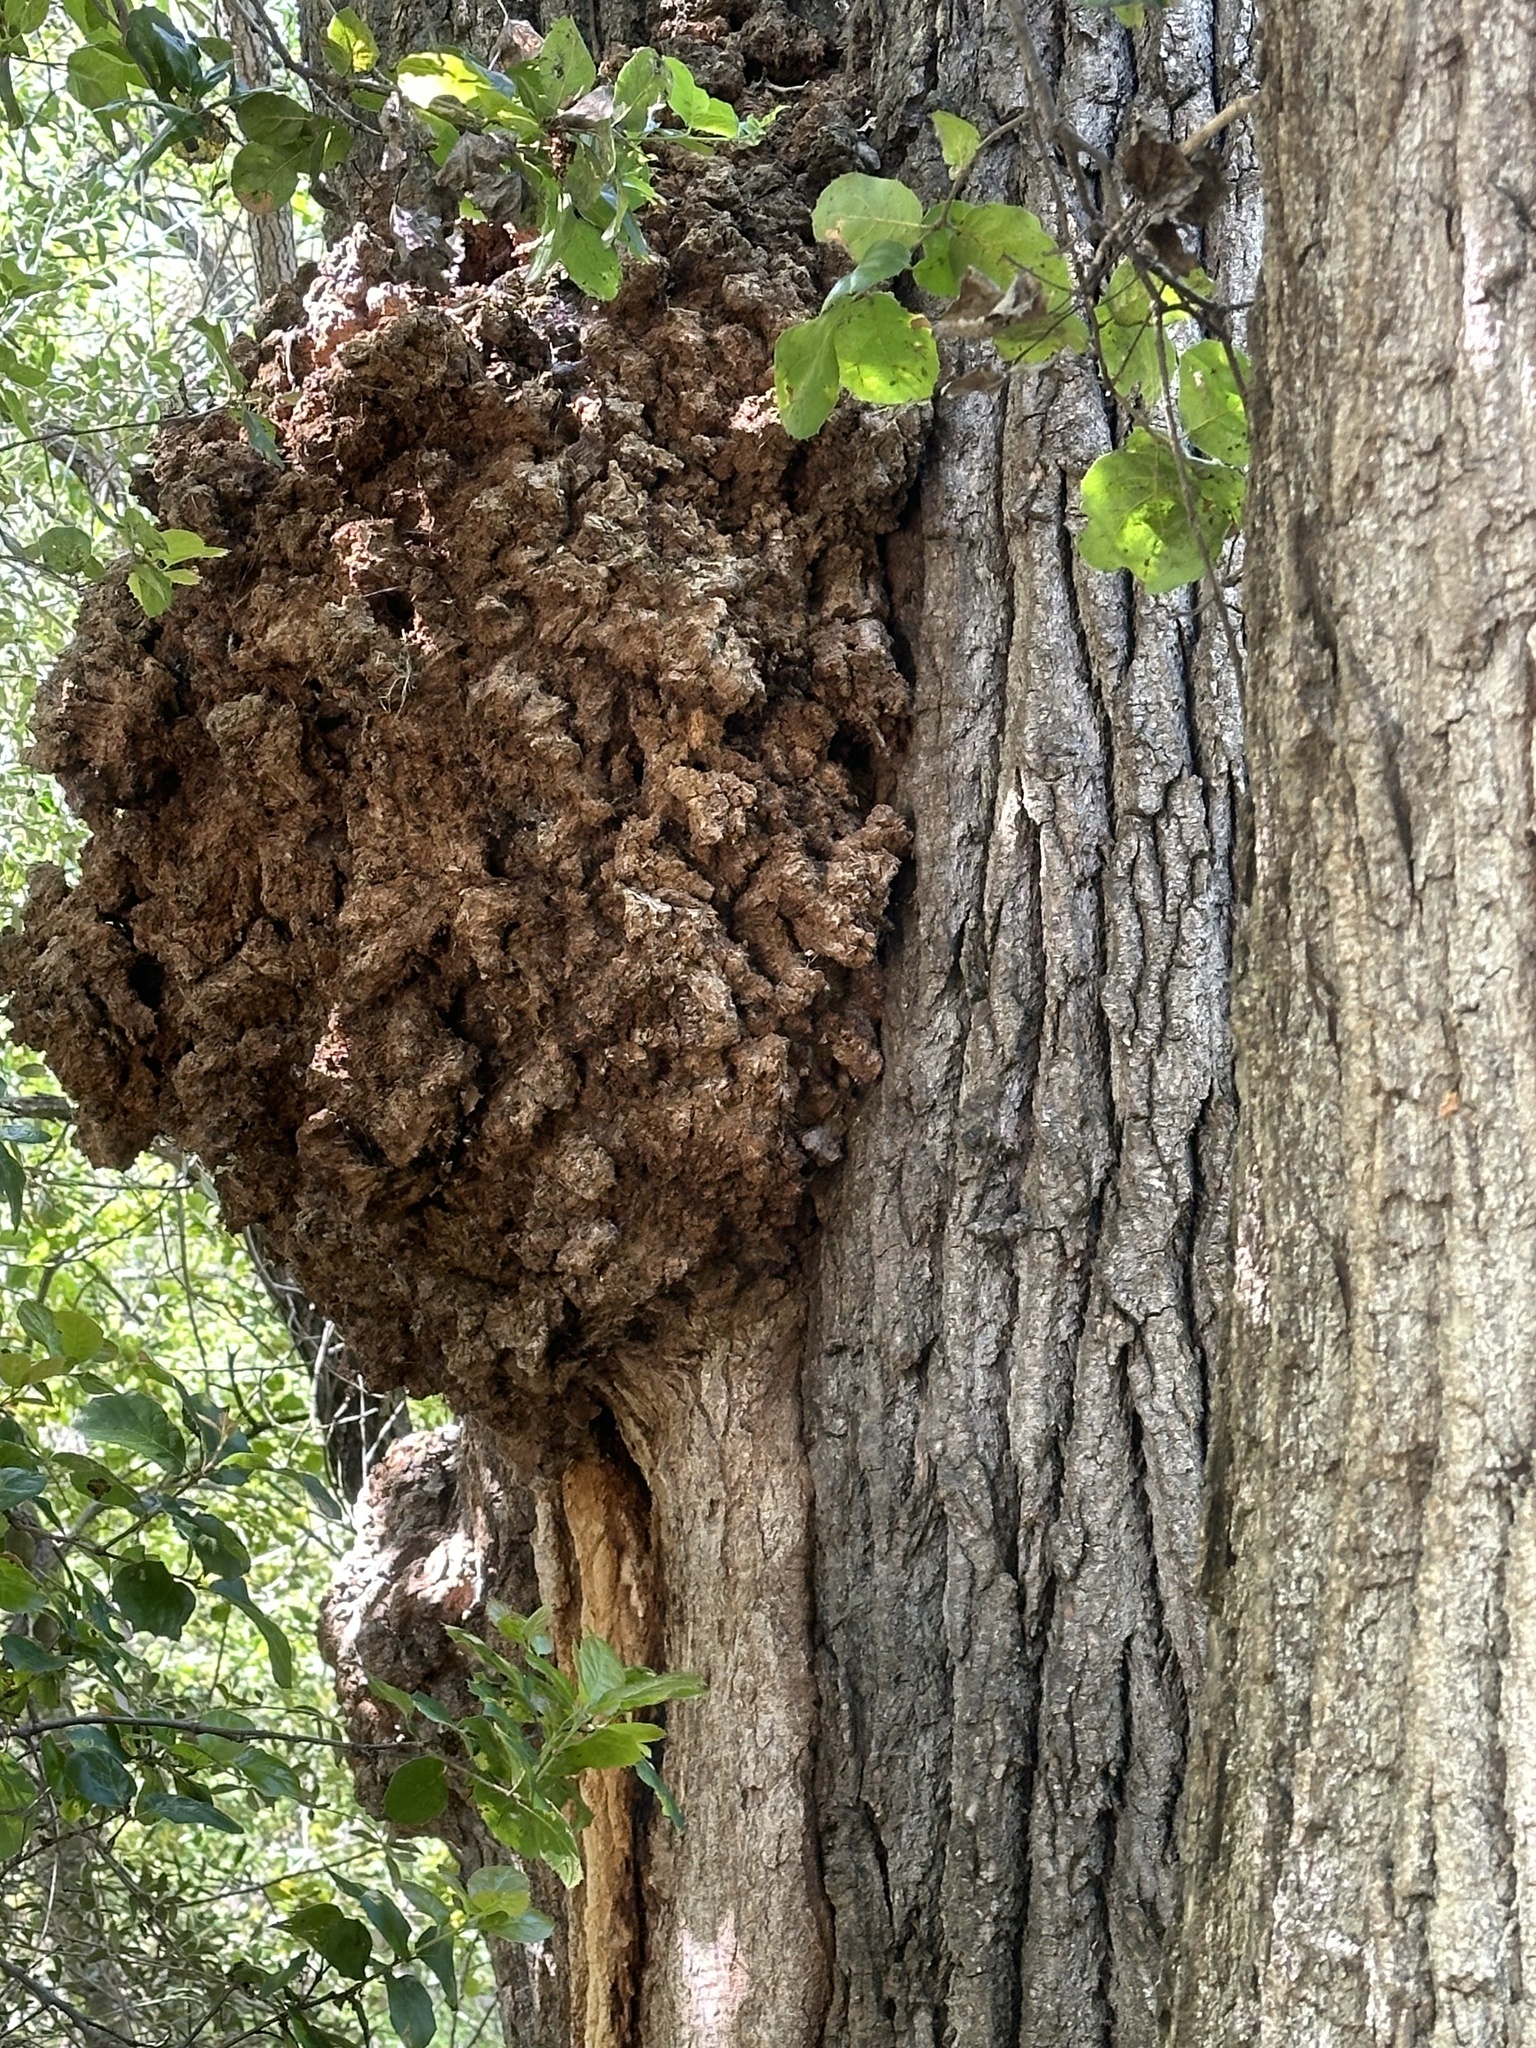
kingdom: Bacteria
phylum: Proteobacteria
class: Alphaproteobacteria
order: Rhizobiales
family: Rhizobiaceae
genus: Rhizobium
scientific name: Rhizobium Agrobacterium radiobacter
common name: Bacterial crown gall
